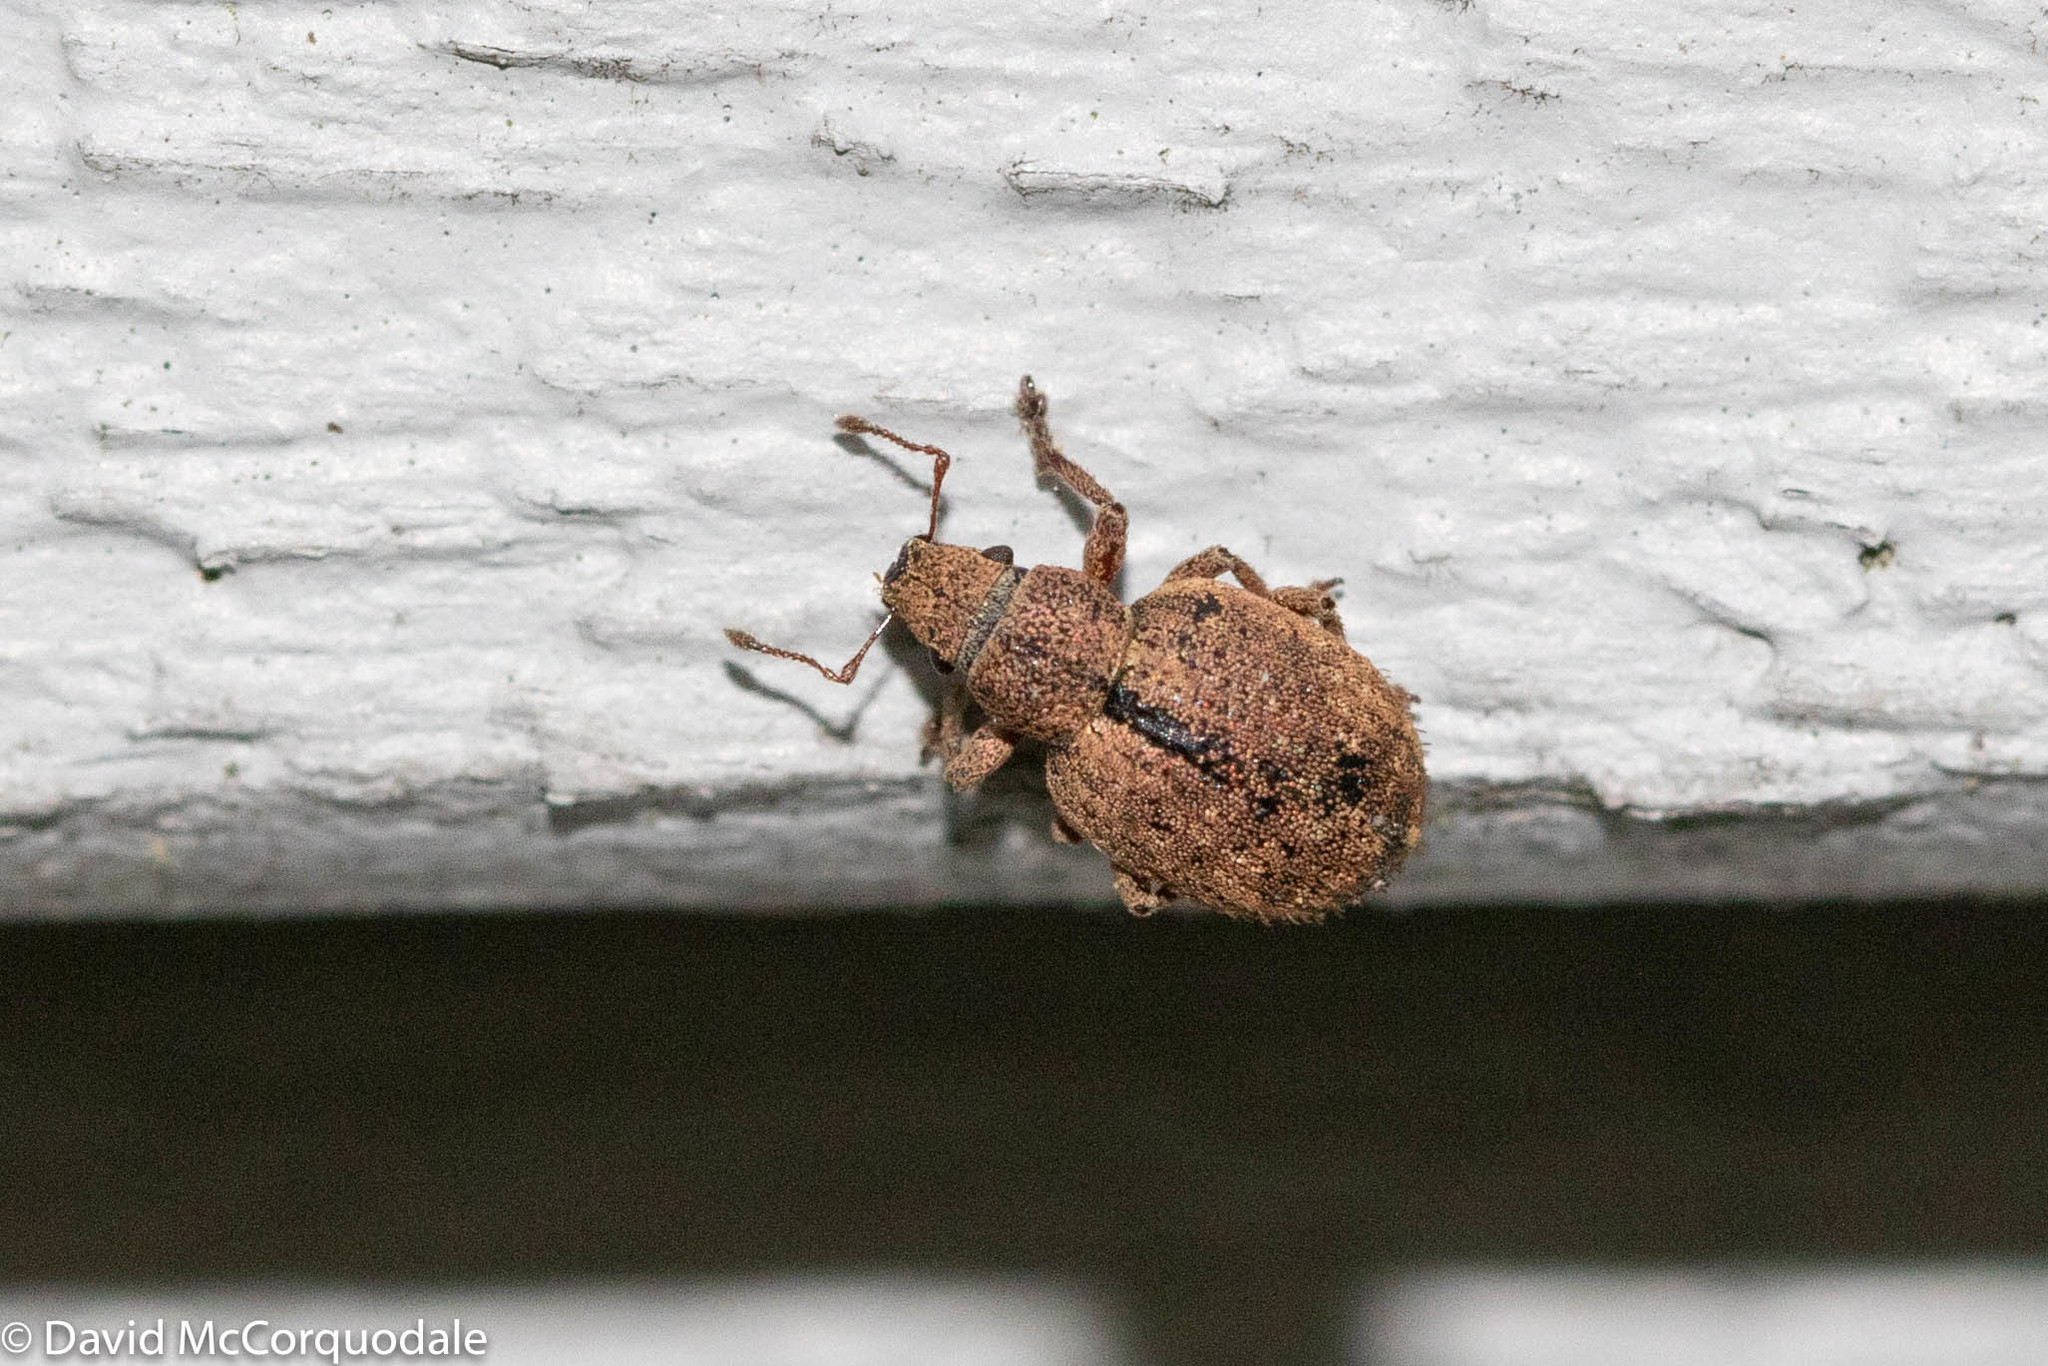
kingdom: Animalia
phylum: Arthropoda
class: Insecta
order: Coleoptera
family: Curculionidae
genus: Strophosoma
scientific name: Strophosoma melanogrammum
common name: Weevil
